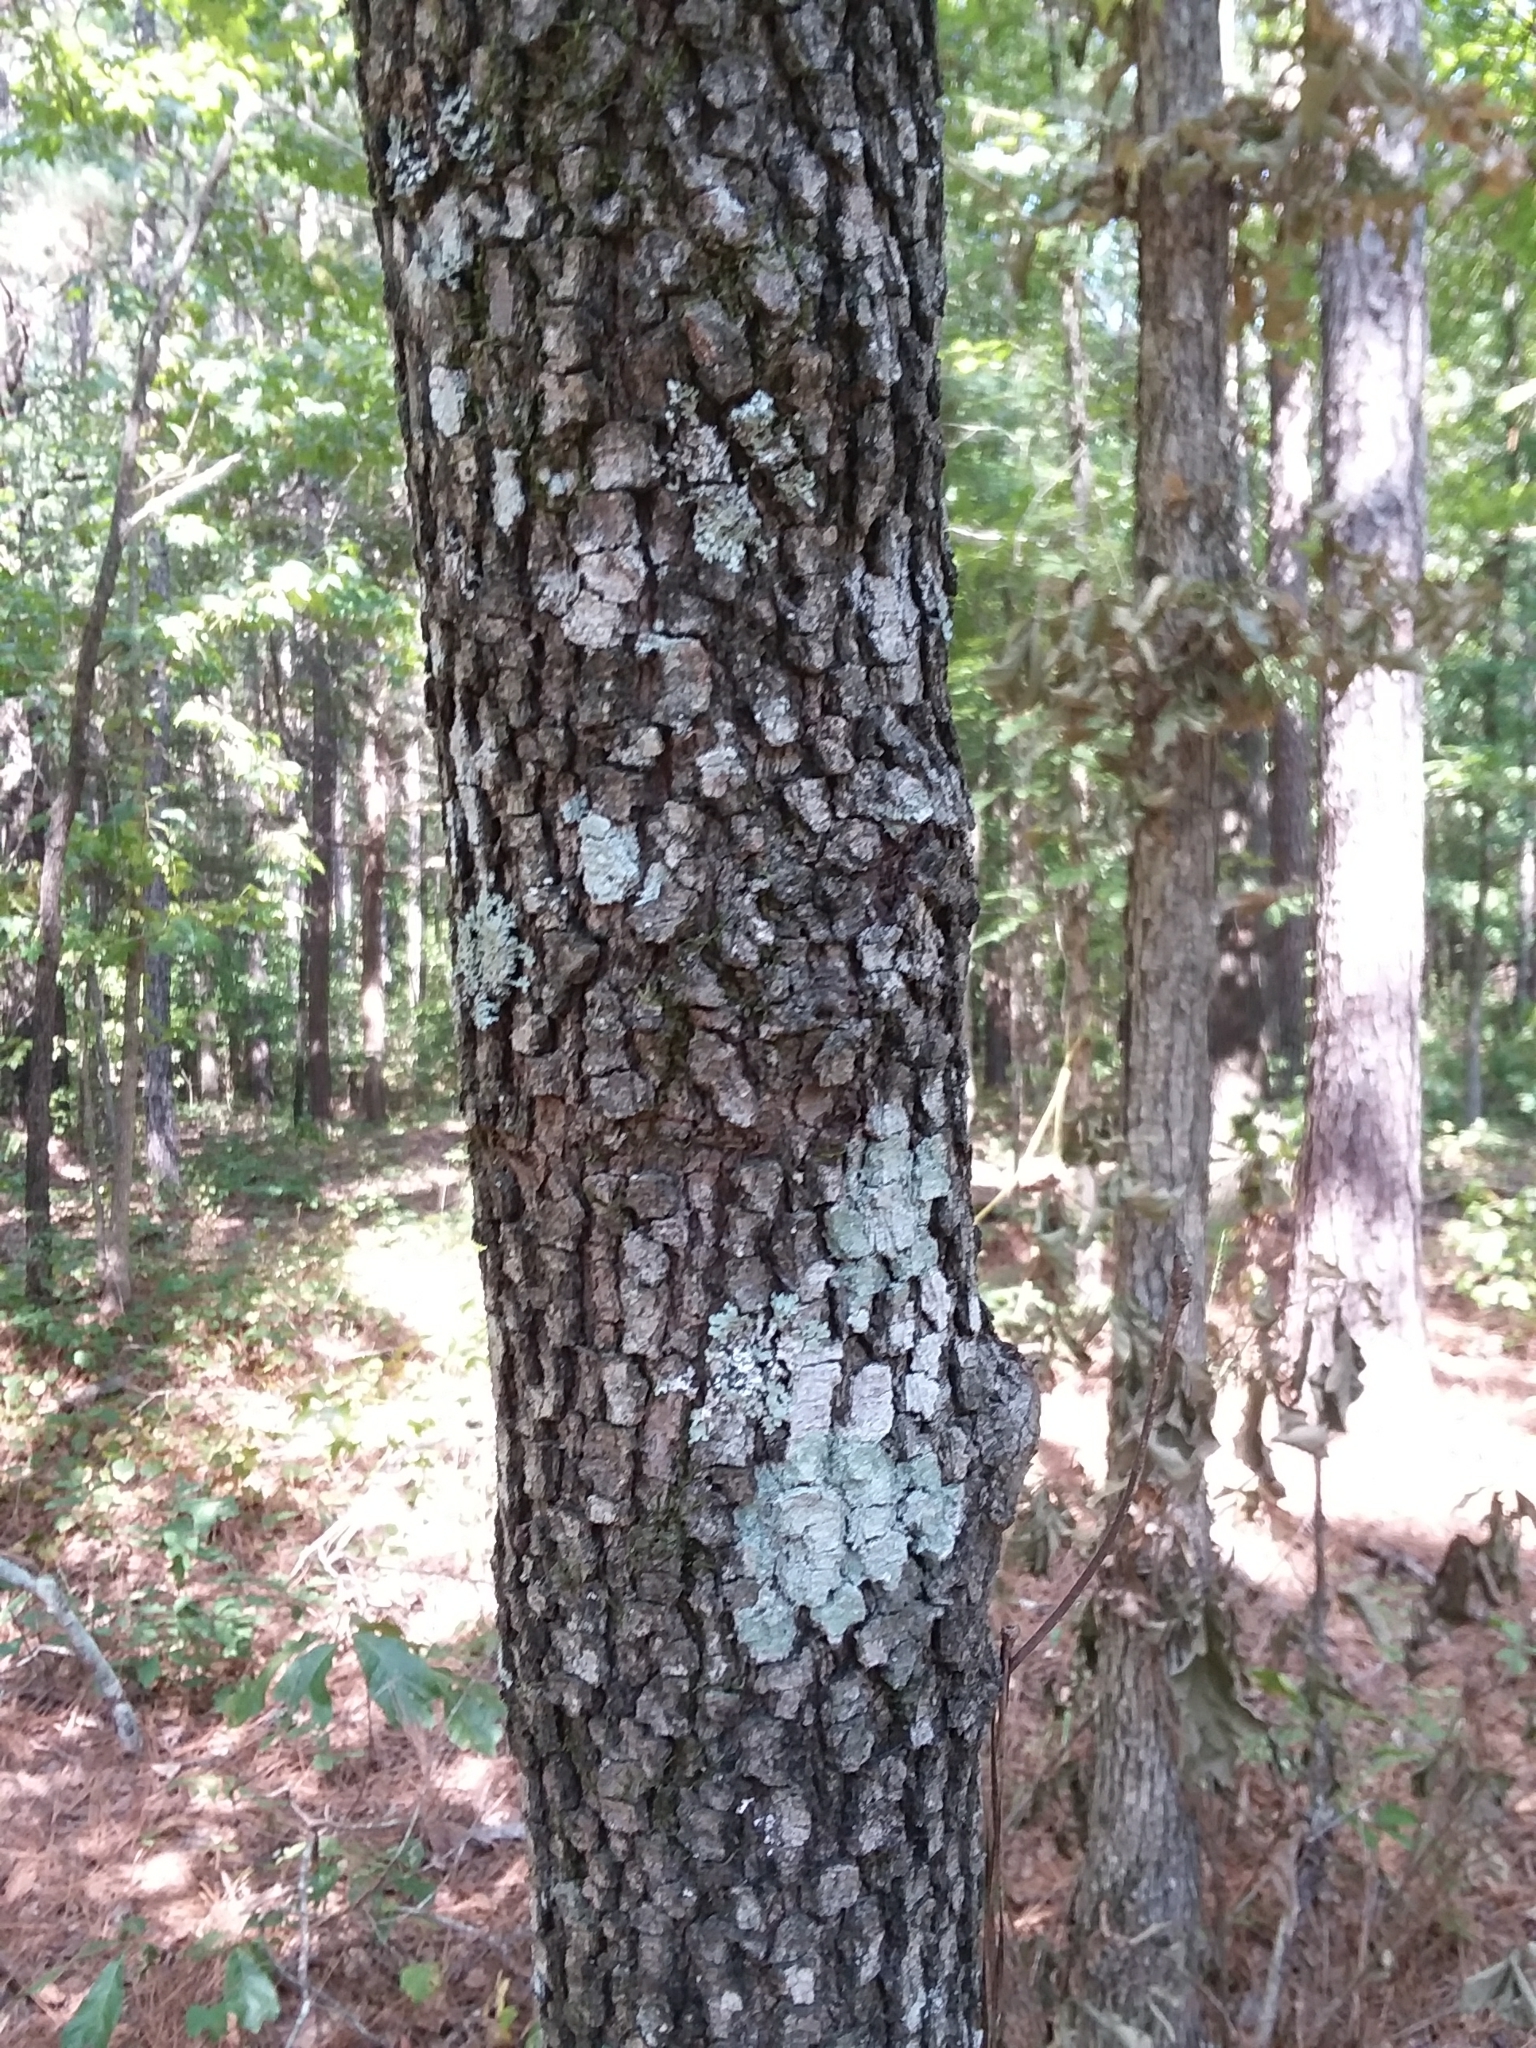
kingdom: Plantae
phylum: Tracheophyta
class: Magnoliopsida
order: Cornales
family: Cornaceae
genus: Cornus
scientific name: Cornus florida
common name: Flowering dogwood
